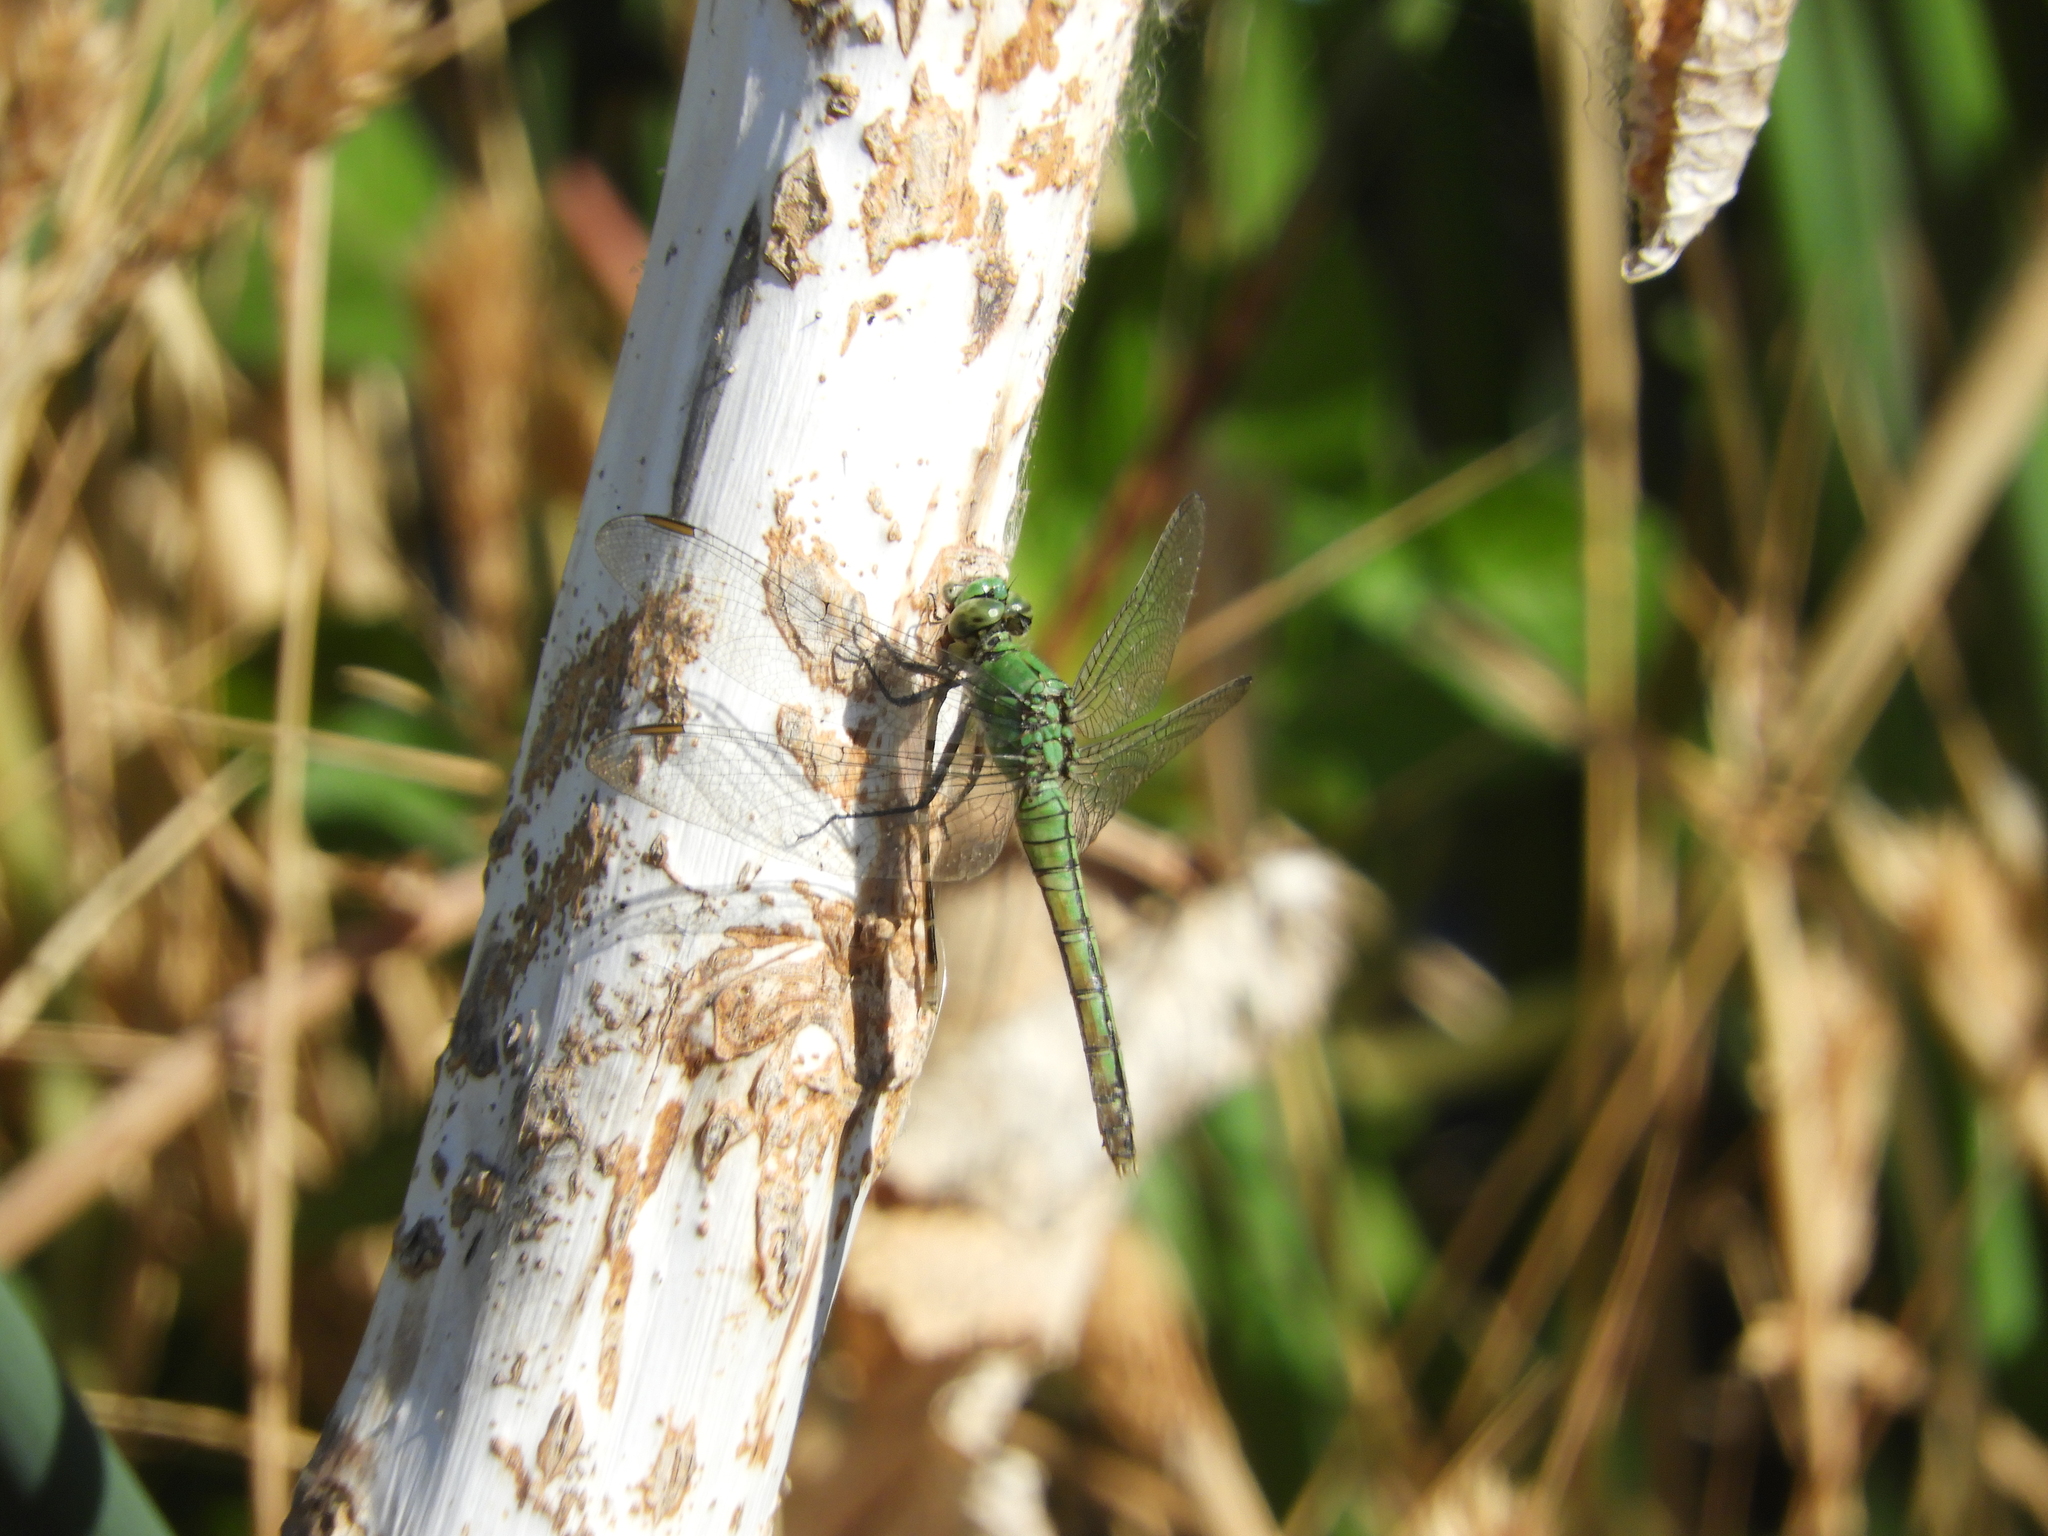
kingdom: Animalia
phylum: Arthropoda
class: Insecta
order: Odonata
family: Libellulidae
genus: Erythemis
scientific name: Erythemis collocata
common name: Western pondhawk
